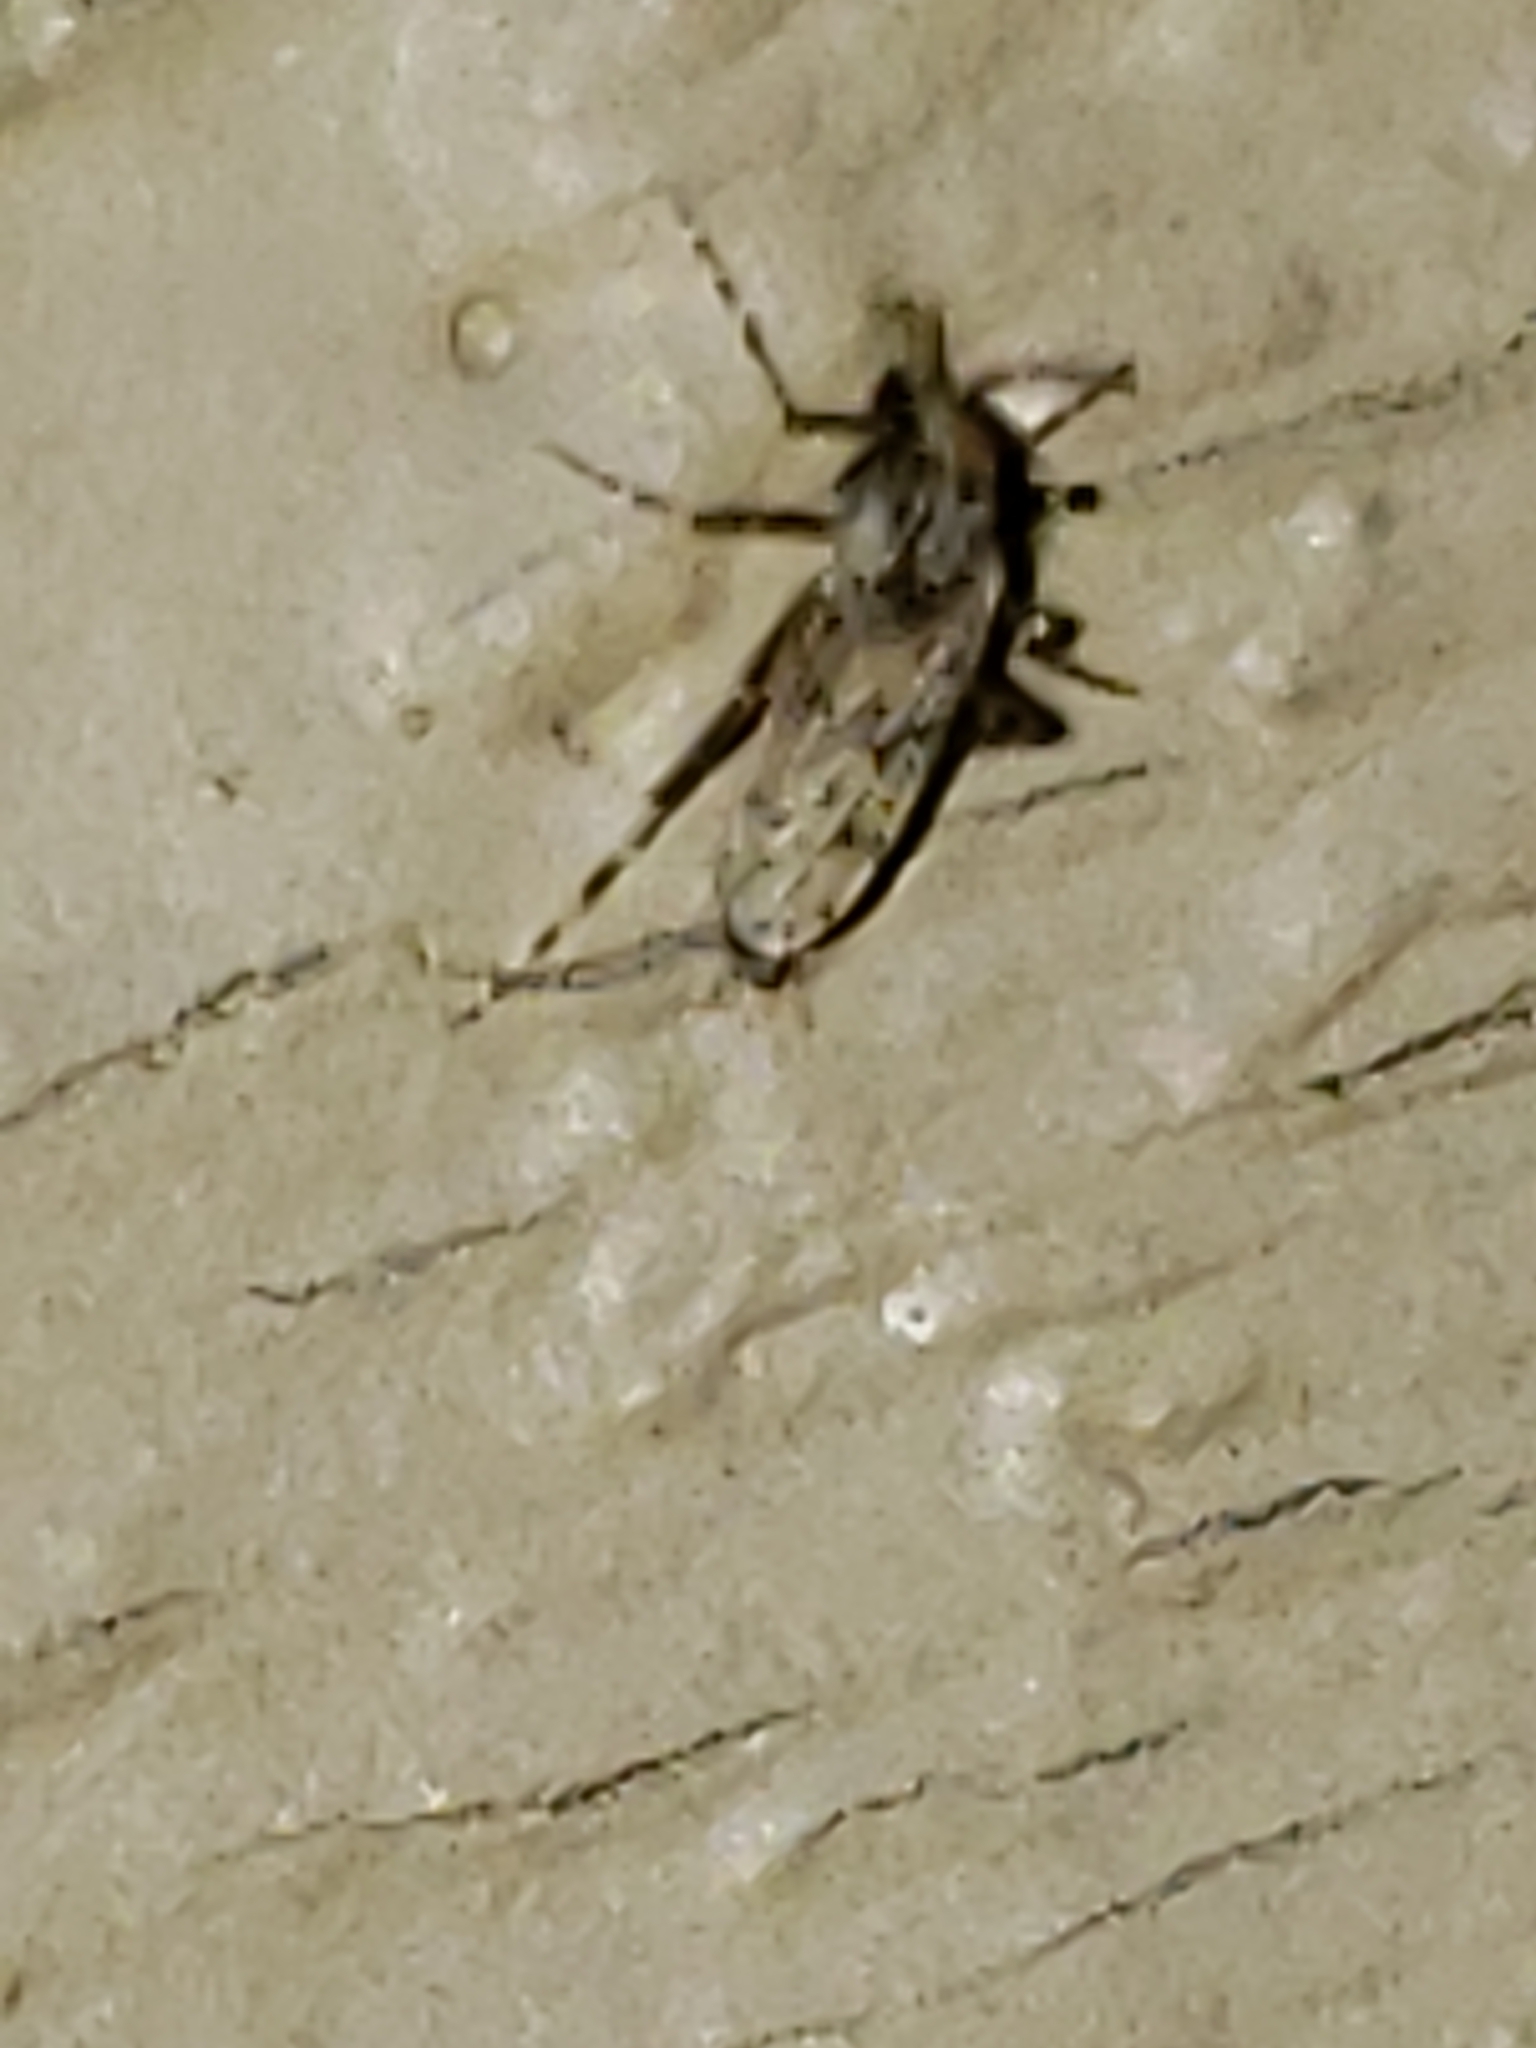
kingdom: Animalia
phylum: Arthropoda
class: Insecta
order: Diptera
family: Chaoboridae
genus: Chaoborus
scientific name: Chaoborus punctipennis
